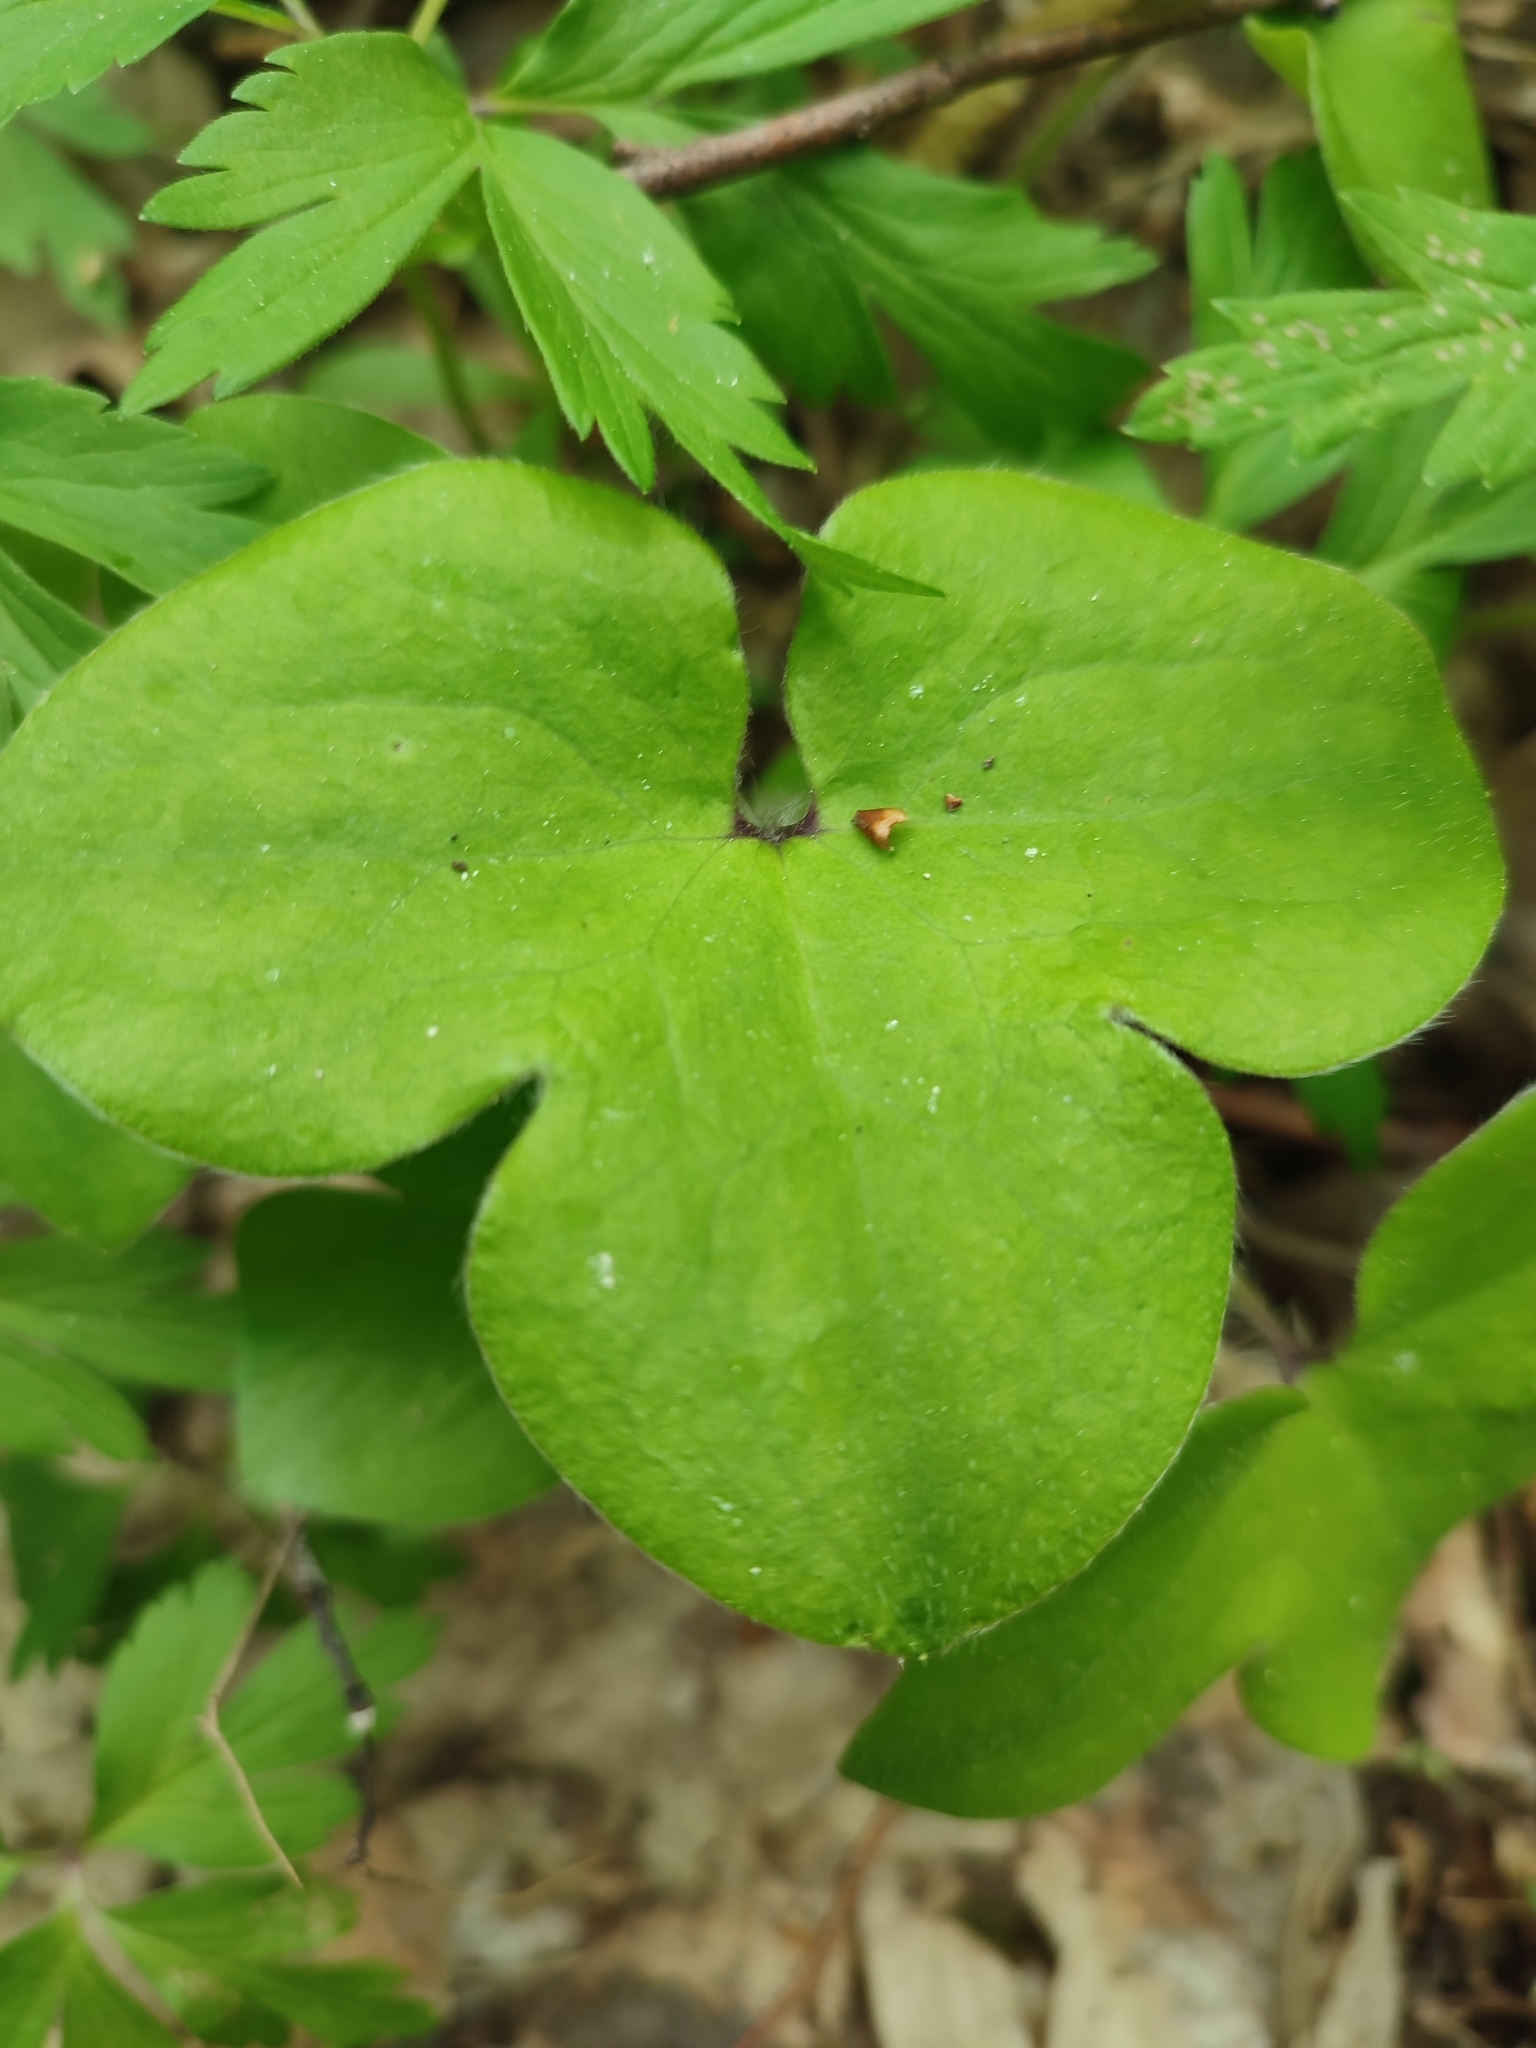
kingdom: Plantae
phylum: Tracheophyta
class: Magnoliopsida
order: Ranunculales
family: Ranunculaceae
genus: Hepatica
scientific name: Hepatica nobilis
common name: Liverleaf
